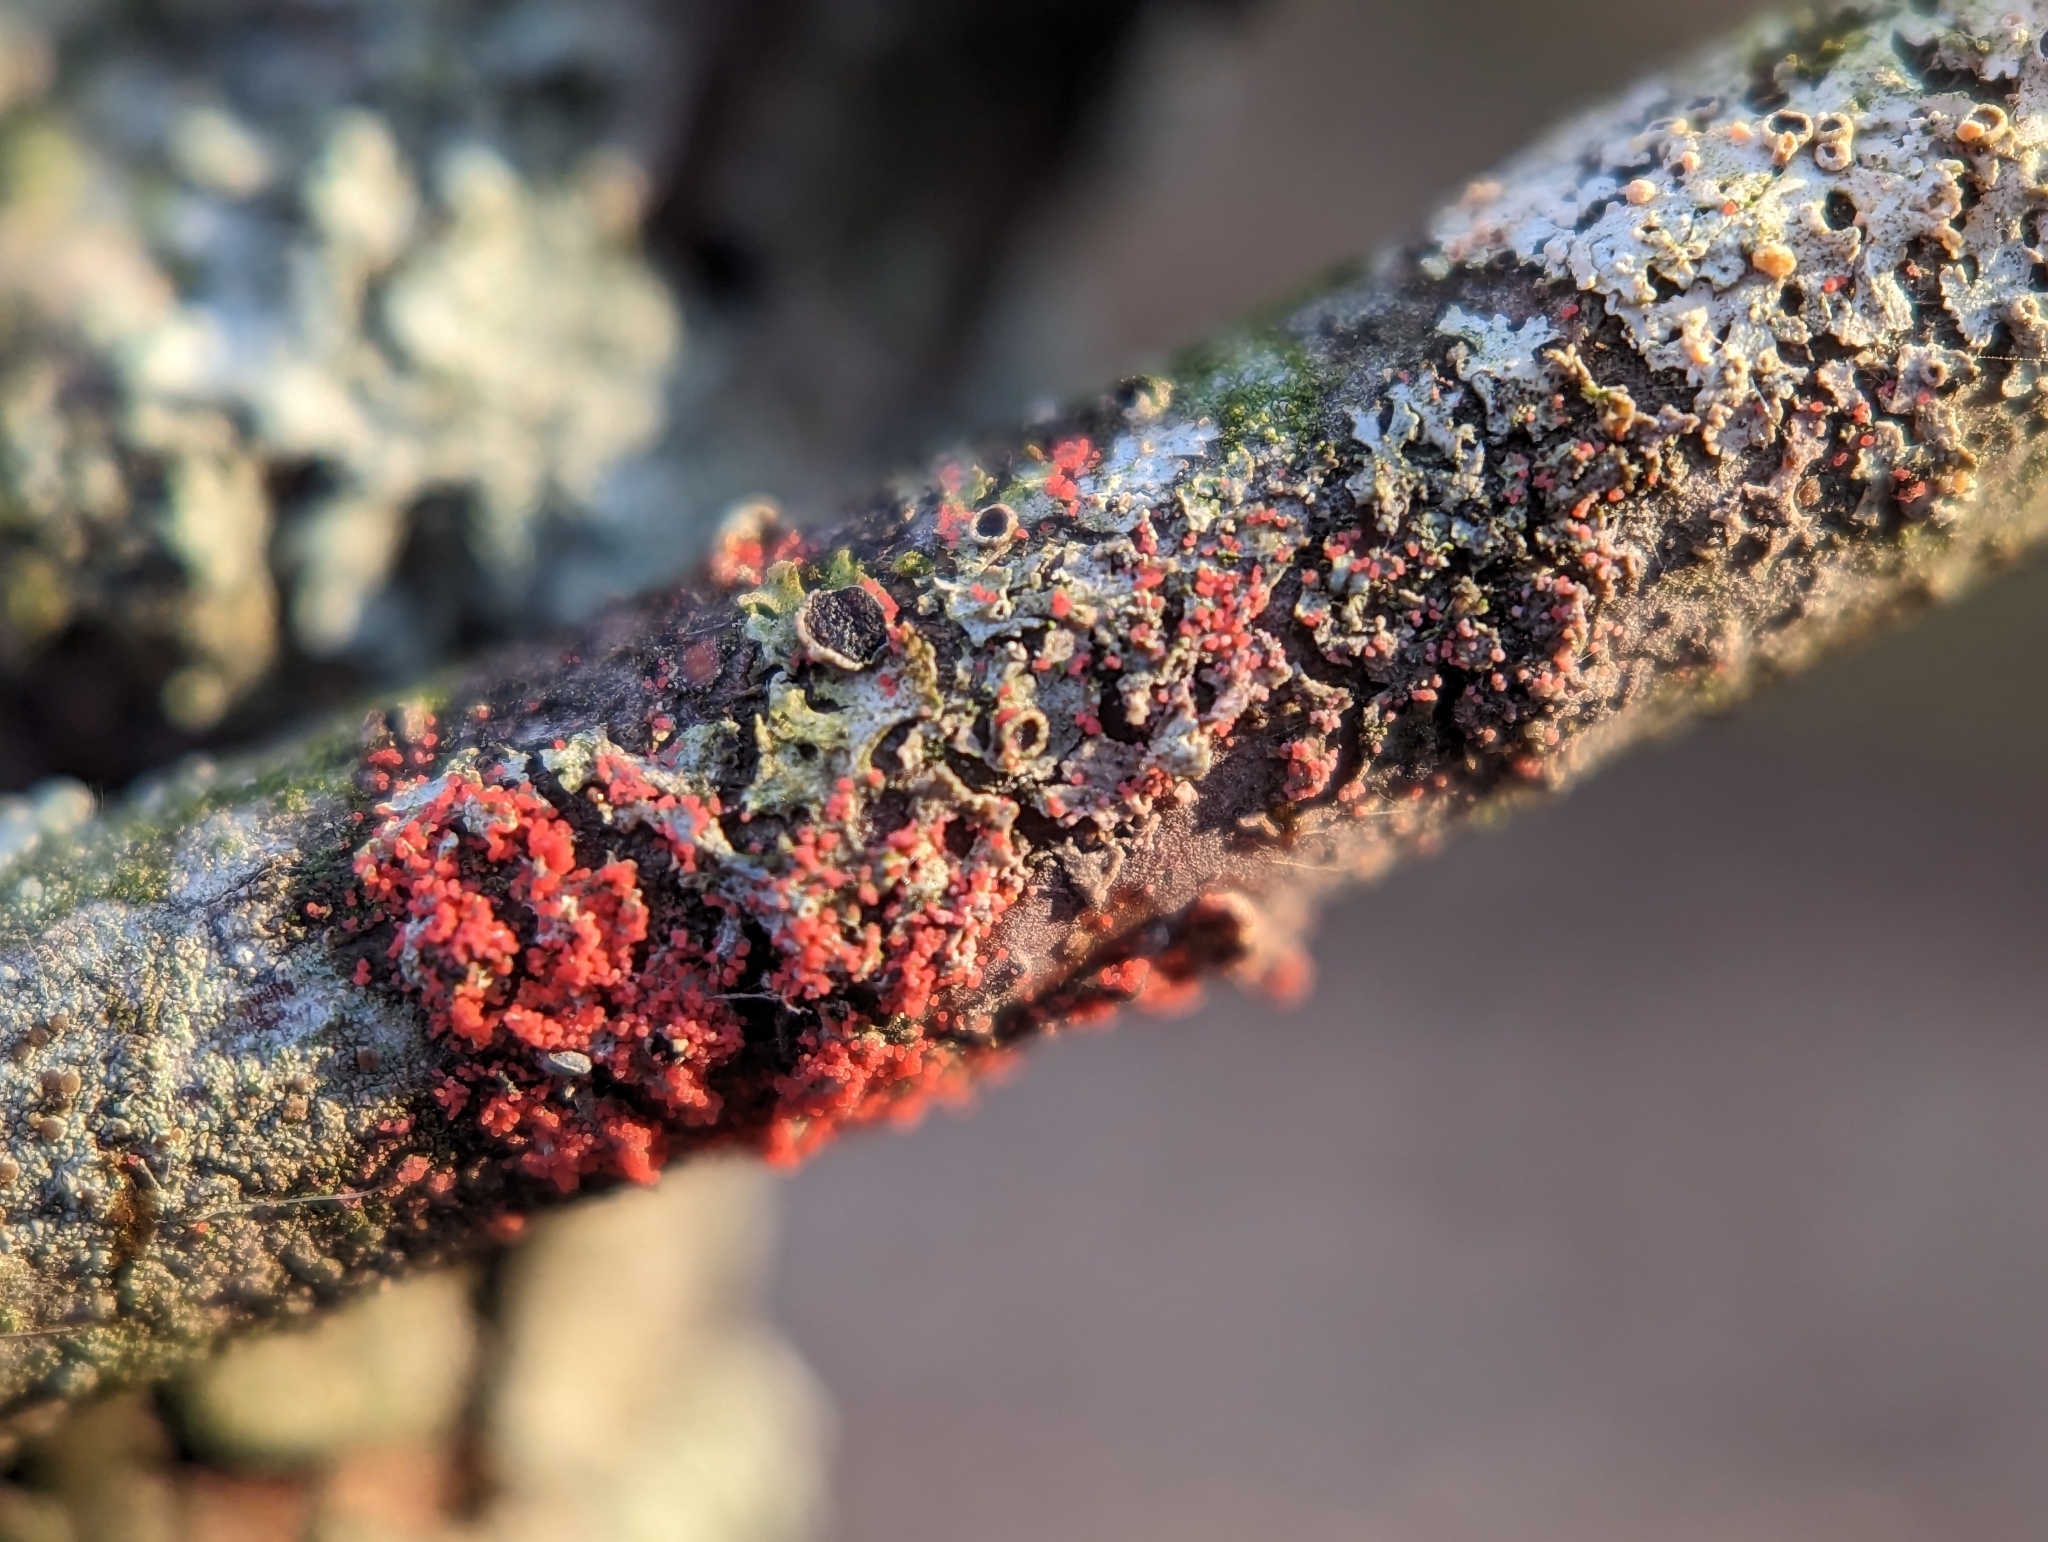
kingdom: Fungi
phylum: Basidiomycota
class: Agaricomycetes
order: Corticiales
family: Corticiaceae
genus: Marchandiomyces
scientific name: Marchandiomyces corallinus
